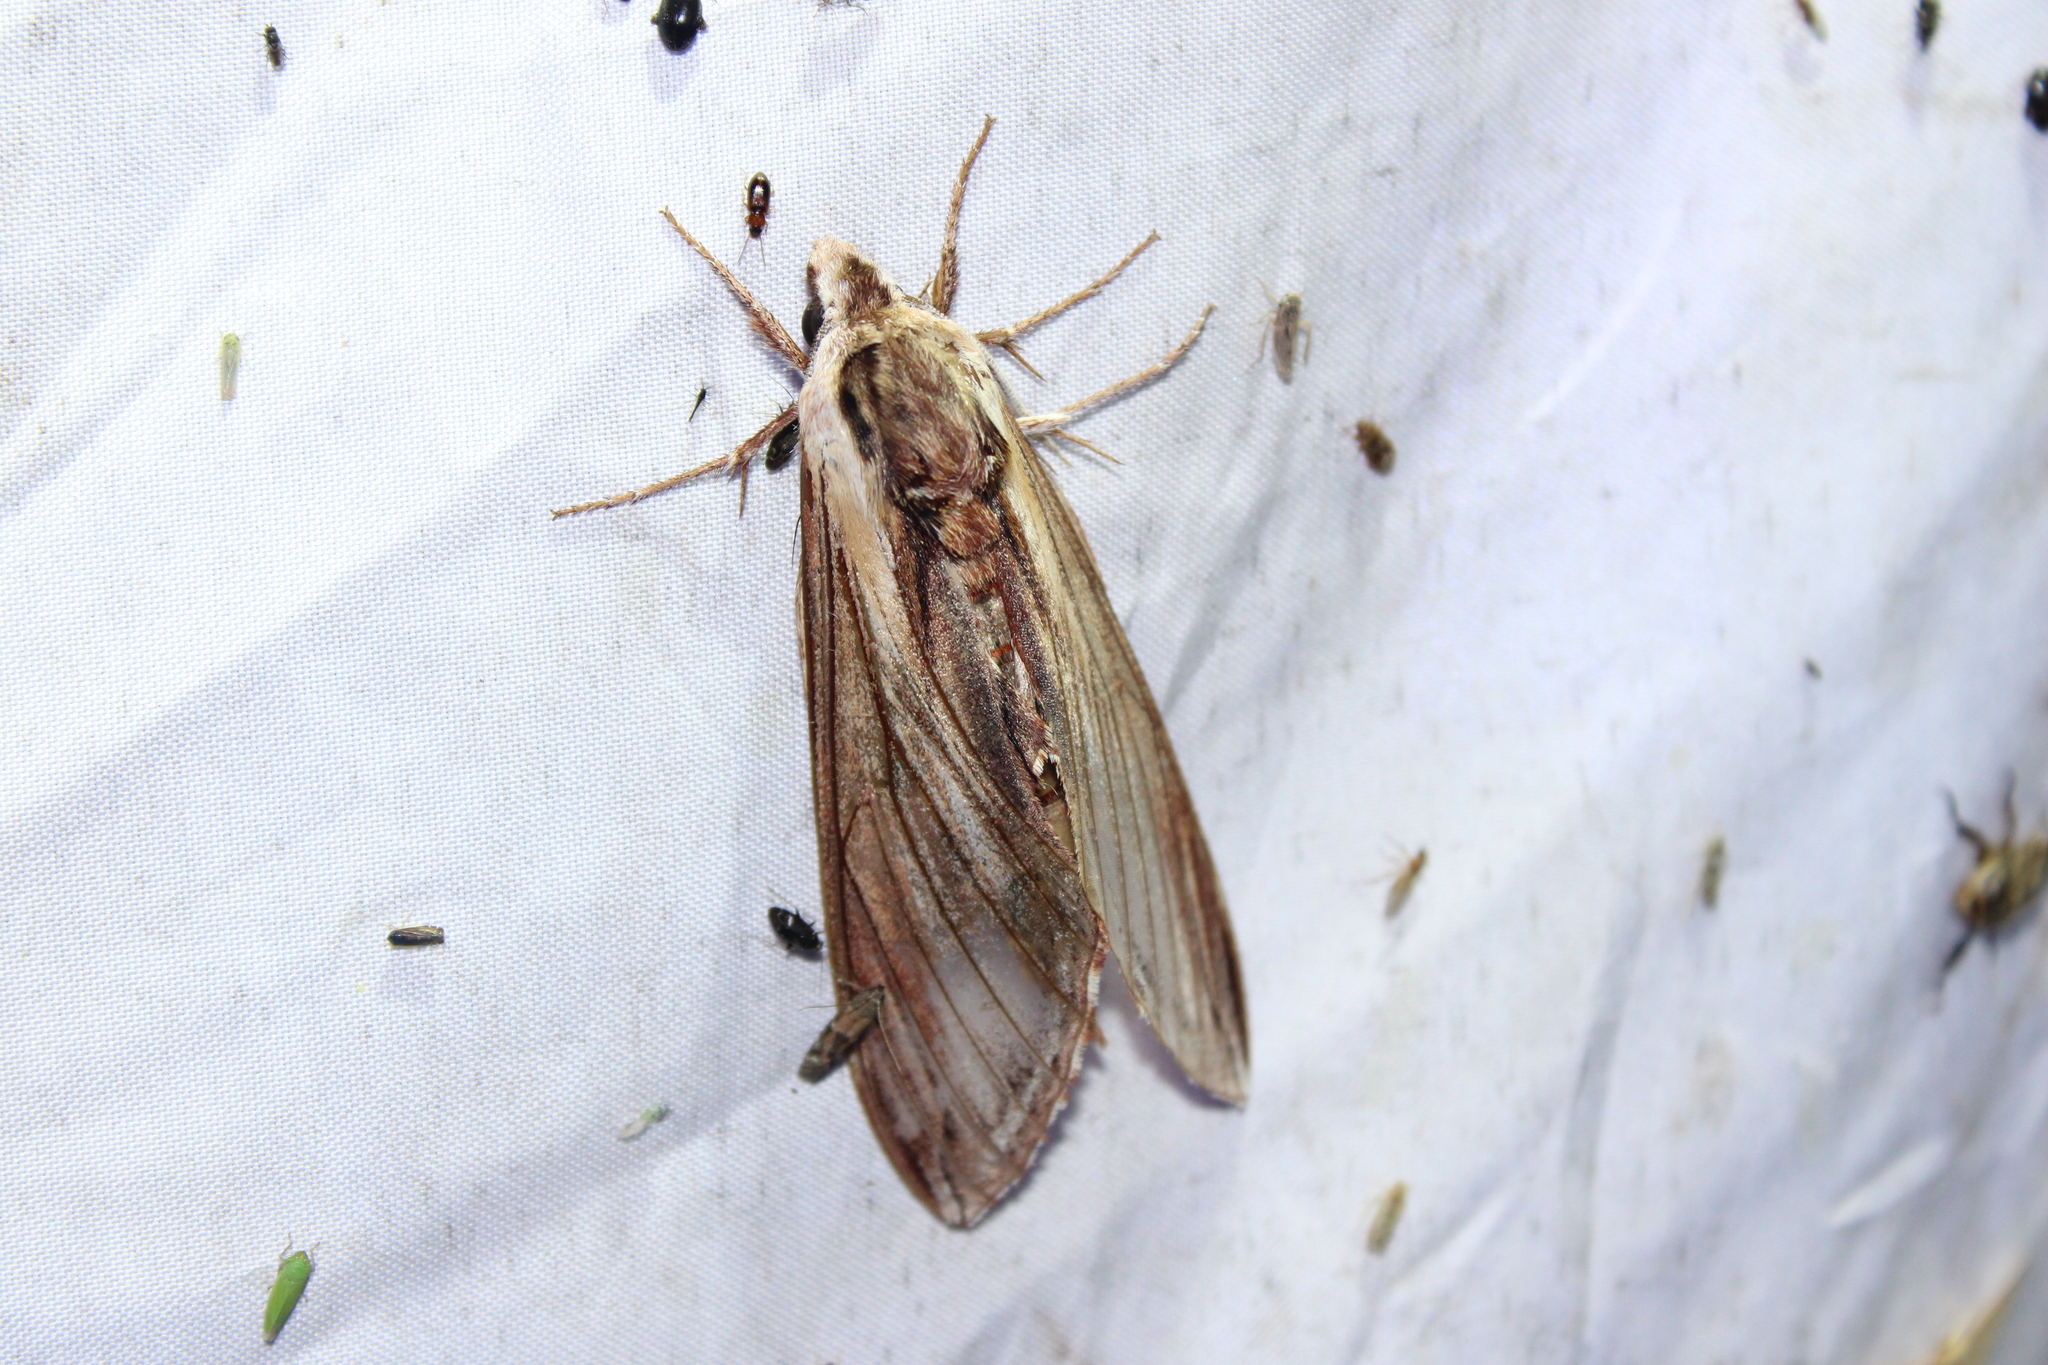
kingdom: Animalia
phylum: Arthropoda
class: Insecta
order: Lepidoptera
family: Sphingidae
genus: Sphinx
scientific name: Sphinx kalmiae
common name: Laurel sphinx
